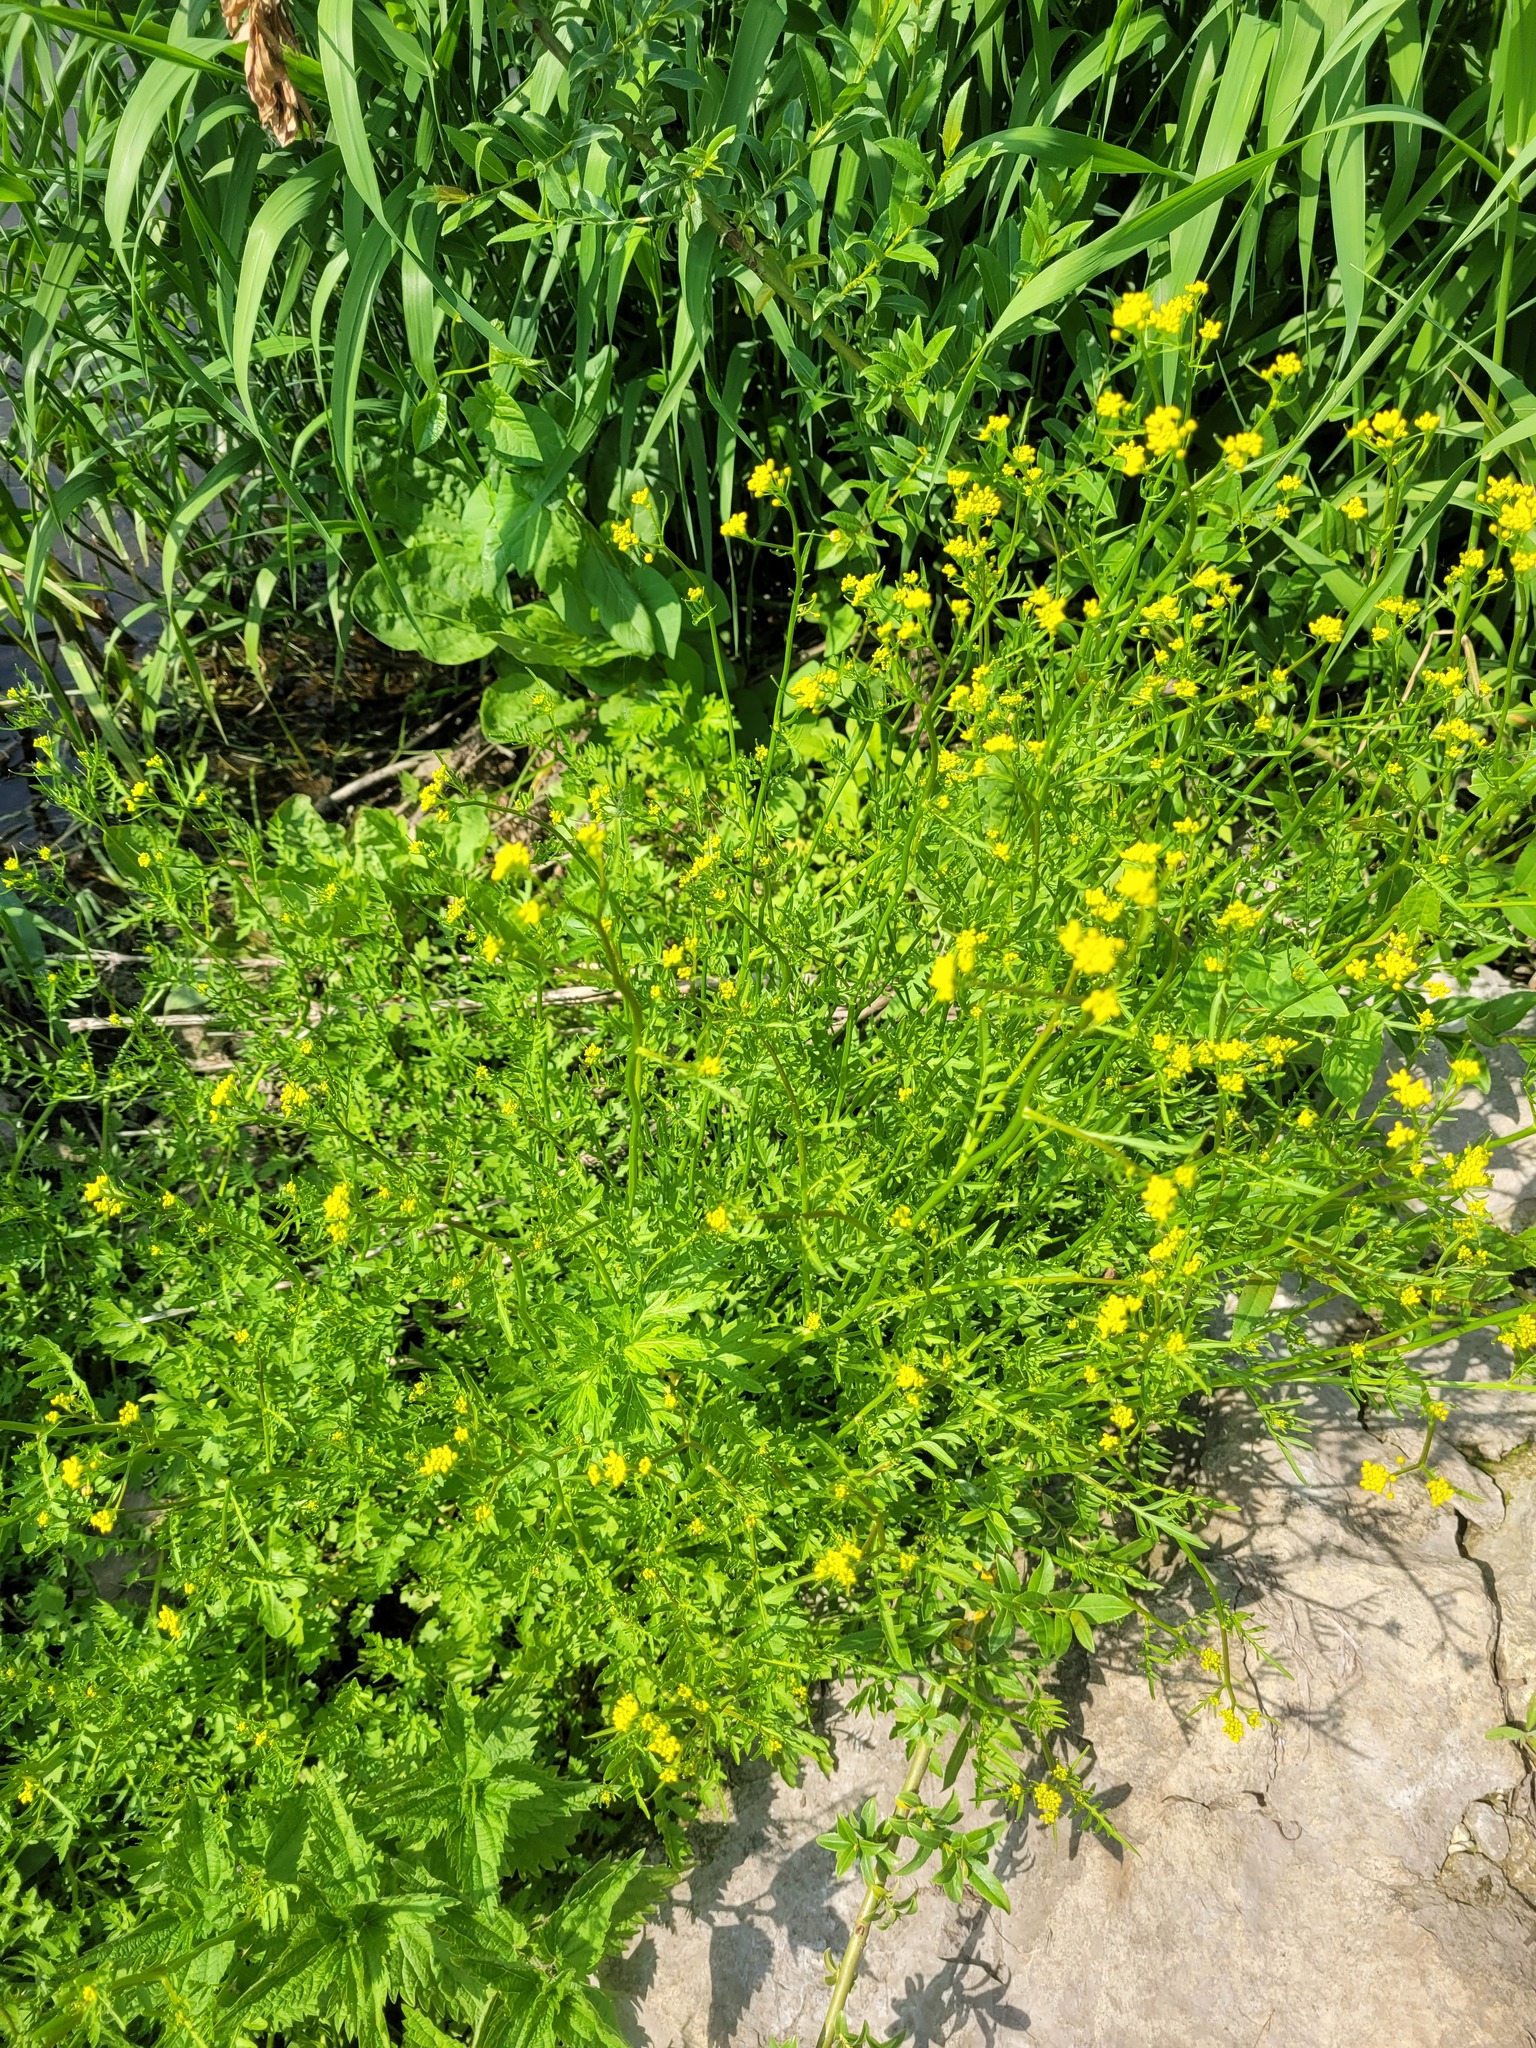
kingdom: Plantae
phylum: Tracheophyta
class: Magnoliopsida
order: Brassicales
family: Brassicaceae
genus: Rorippa
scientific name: Rorippa sylvestris
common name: Creeping yellowcress
